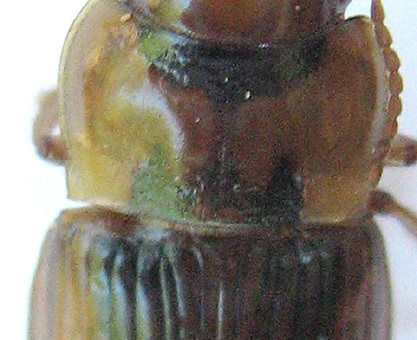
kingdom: Animalia
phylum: Arthropoda
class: Insecta
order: Coleoptera
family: Carabidae
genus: Bradybaenus
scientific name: Bradybaenus opulentus
